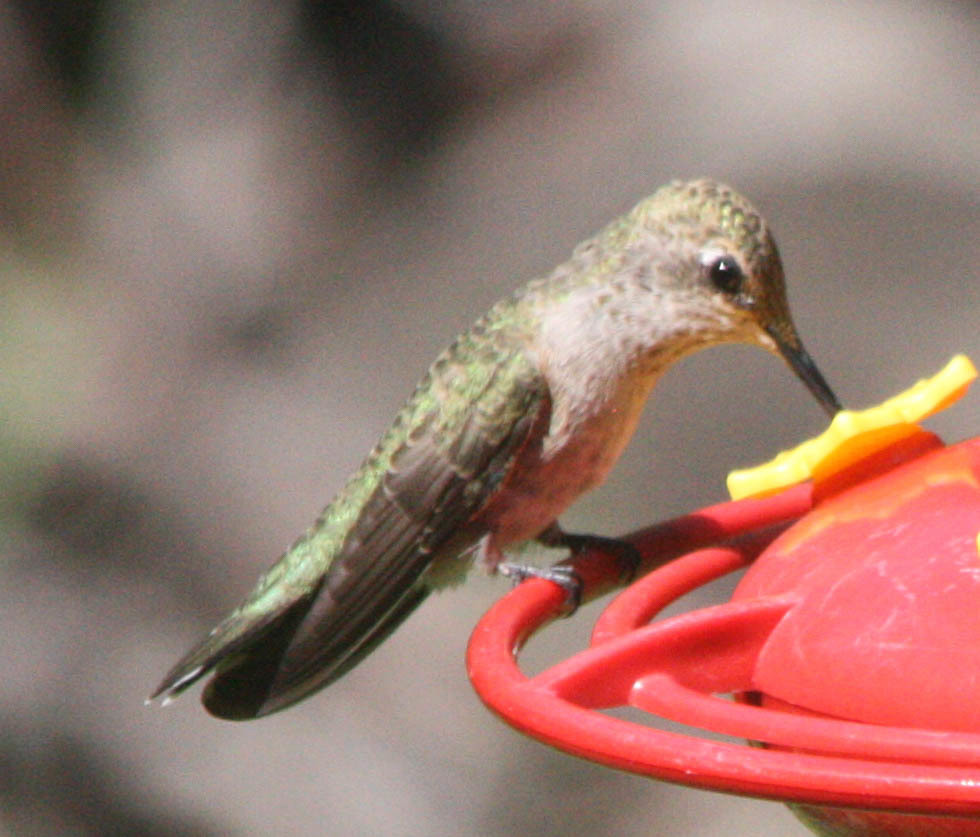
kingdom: Animalia
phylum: Chordata
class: Aves
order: Apodiformes
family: Trochilidae
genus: Archilochus
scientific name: Archilochus alexandri
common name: Black-chinned hummingbird
